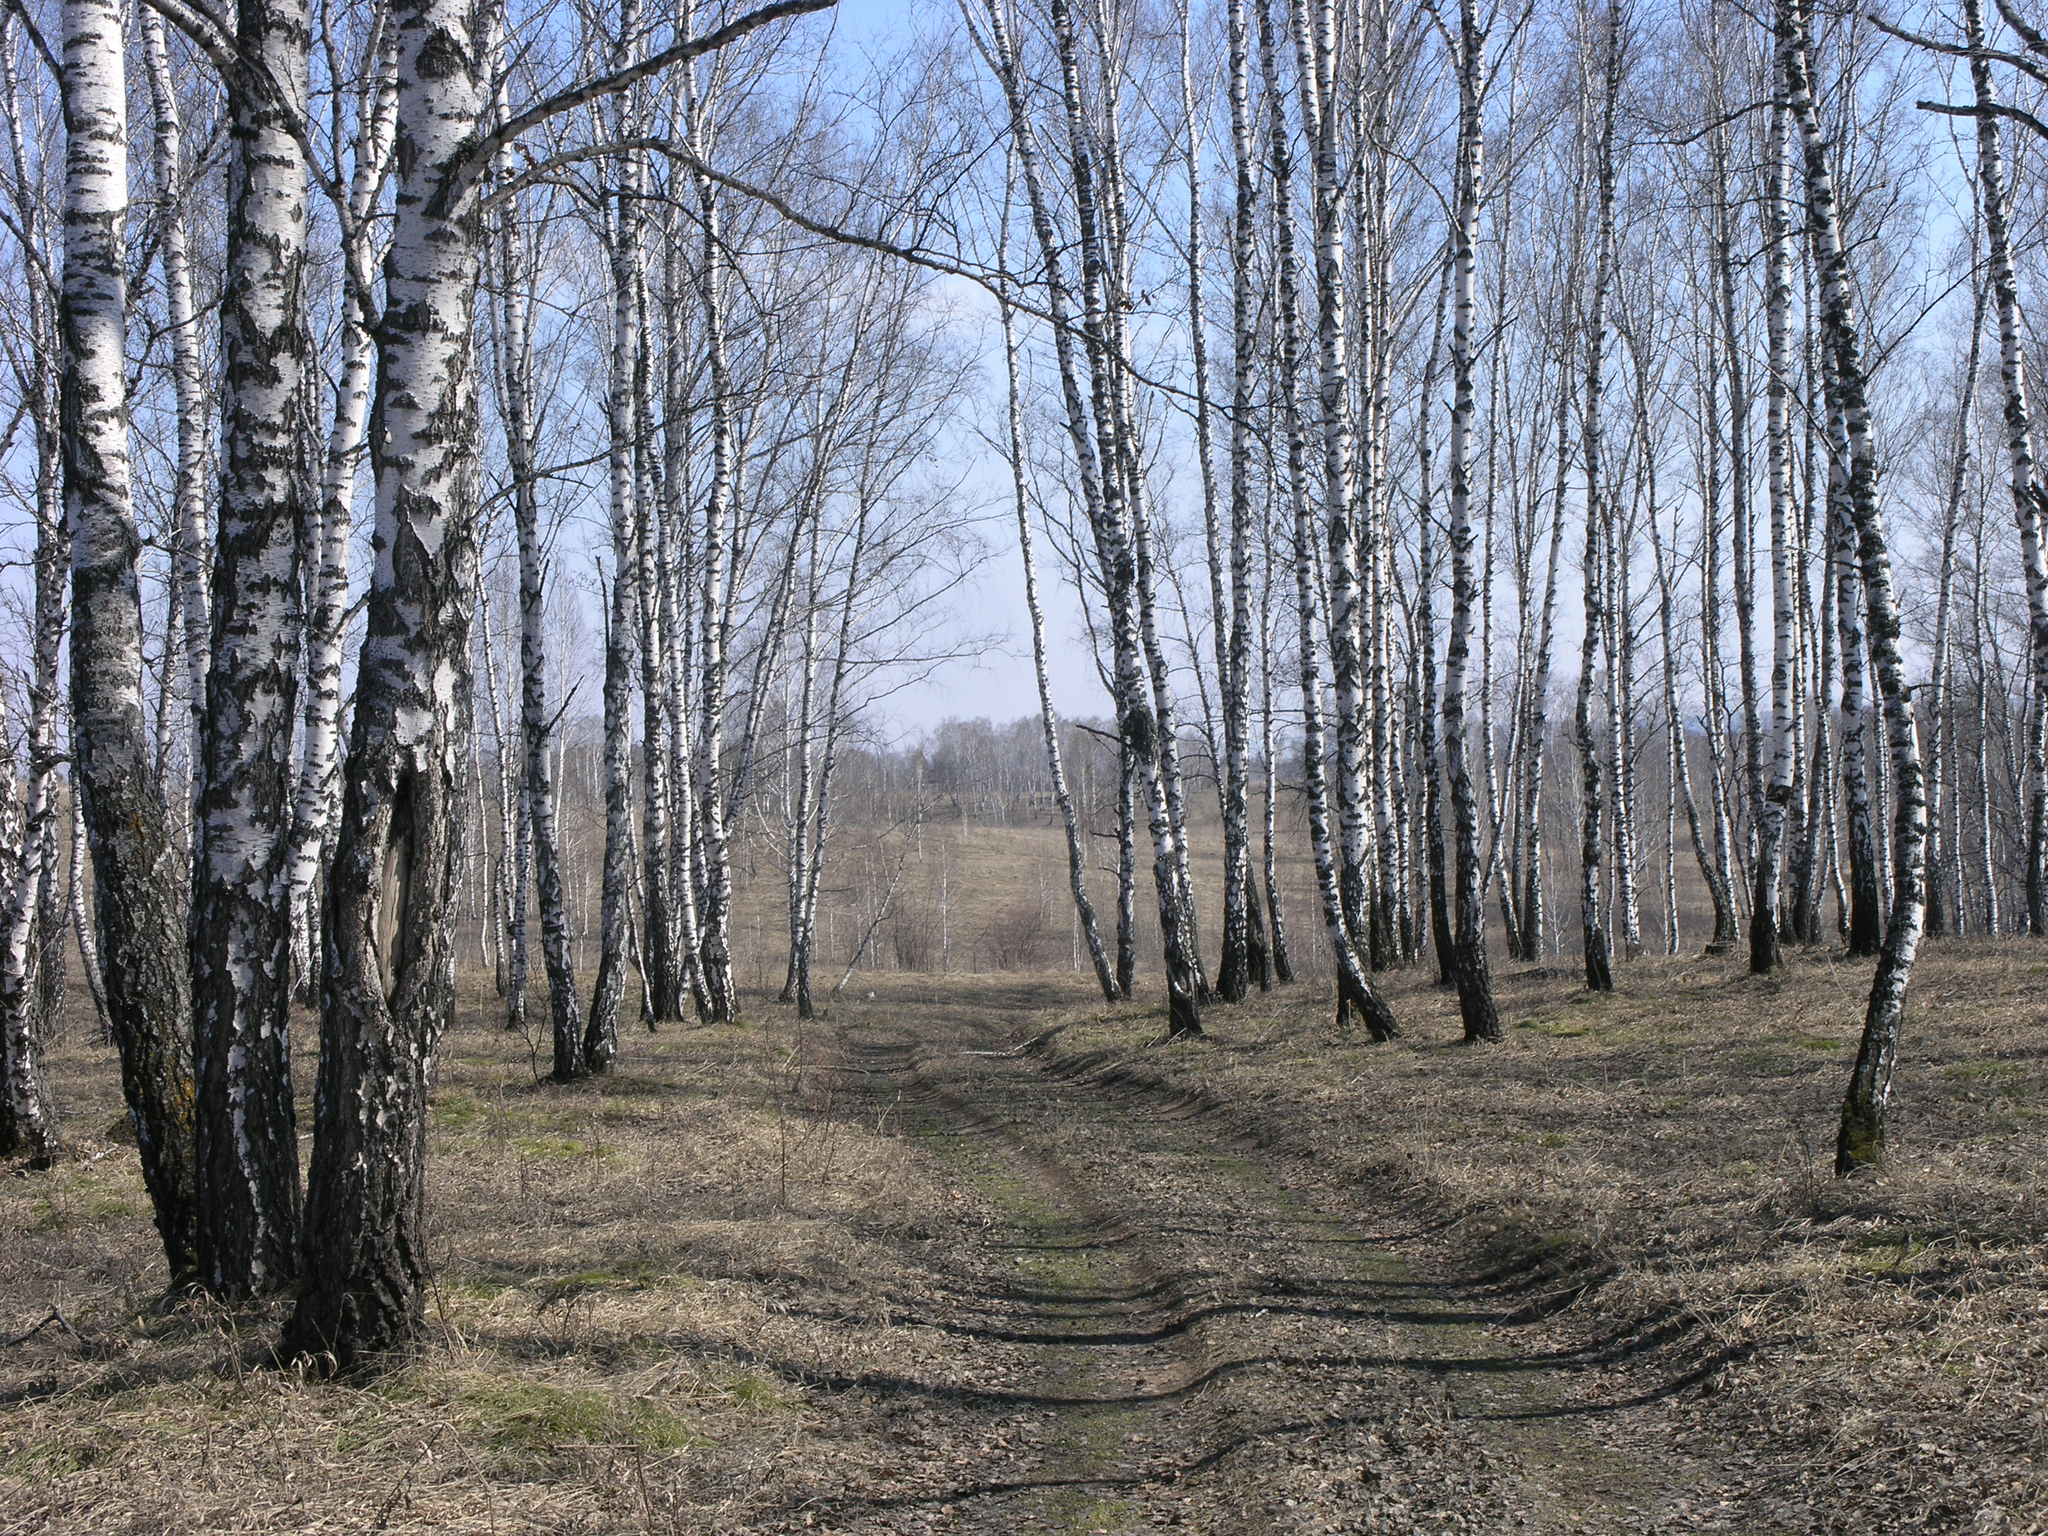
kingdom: Plantae
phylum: Tracheophyta
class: Magnoliopsida
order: Fagales
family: Betulaceae
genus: Betula
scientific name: Betula pendula
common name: Silver birch
